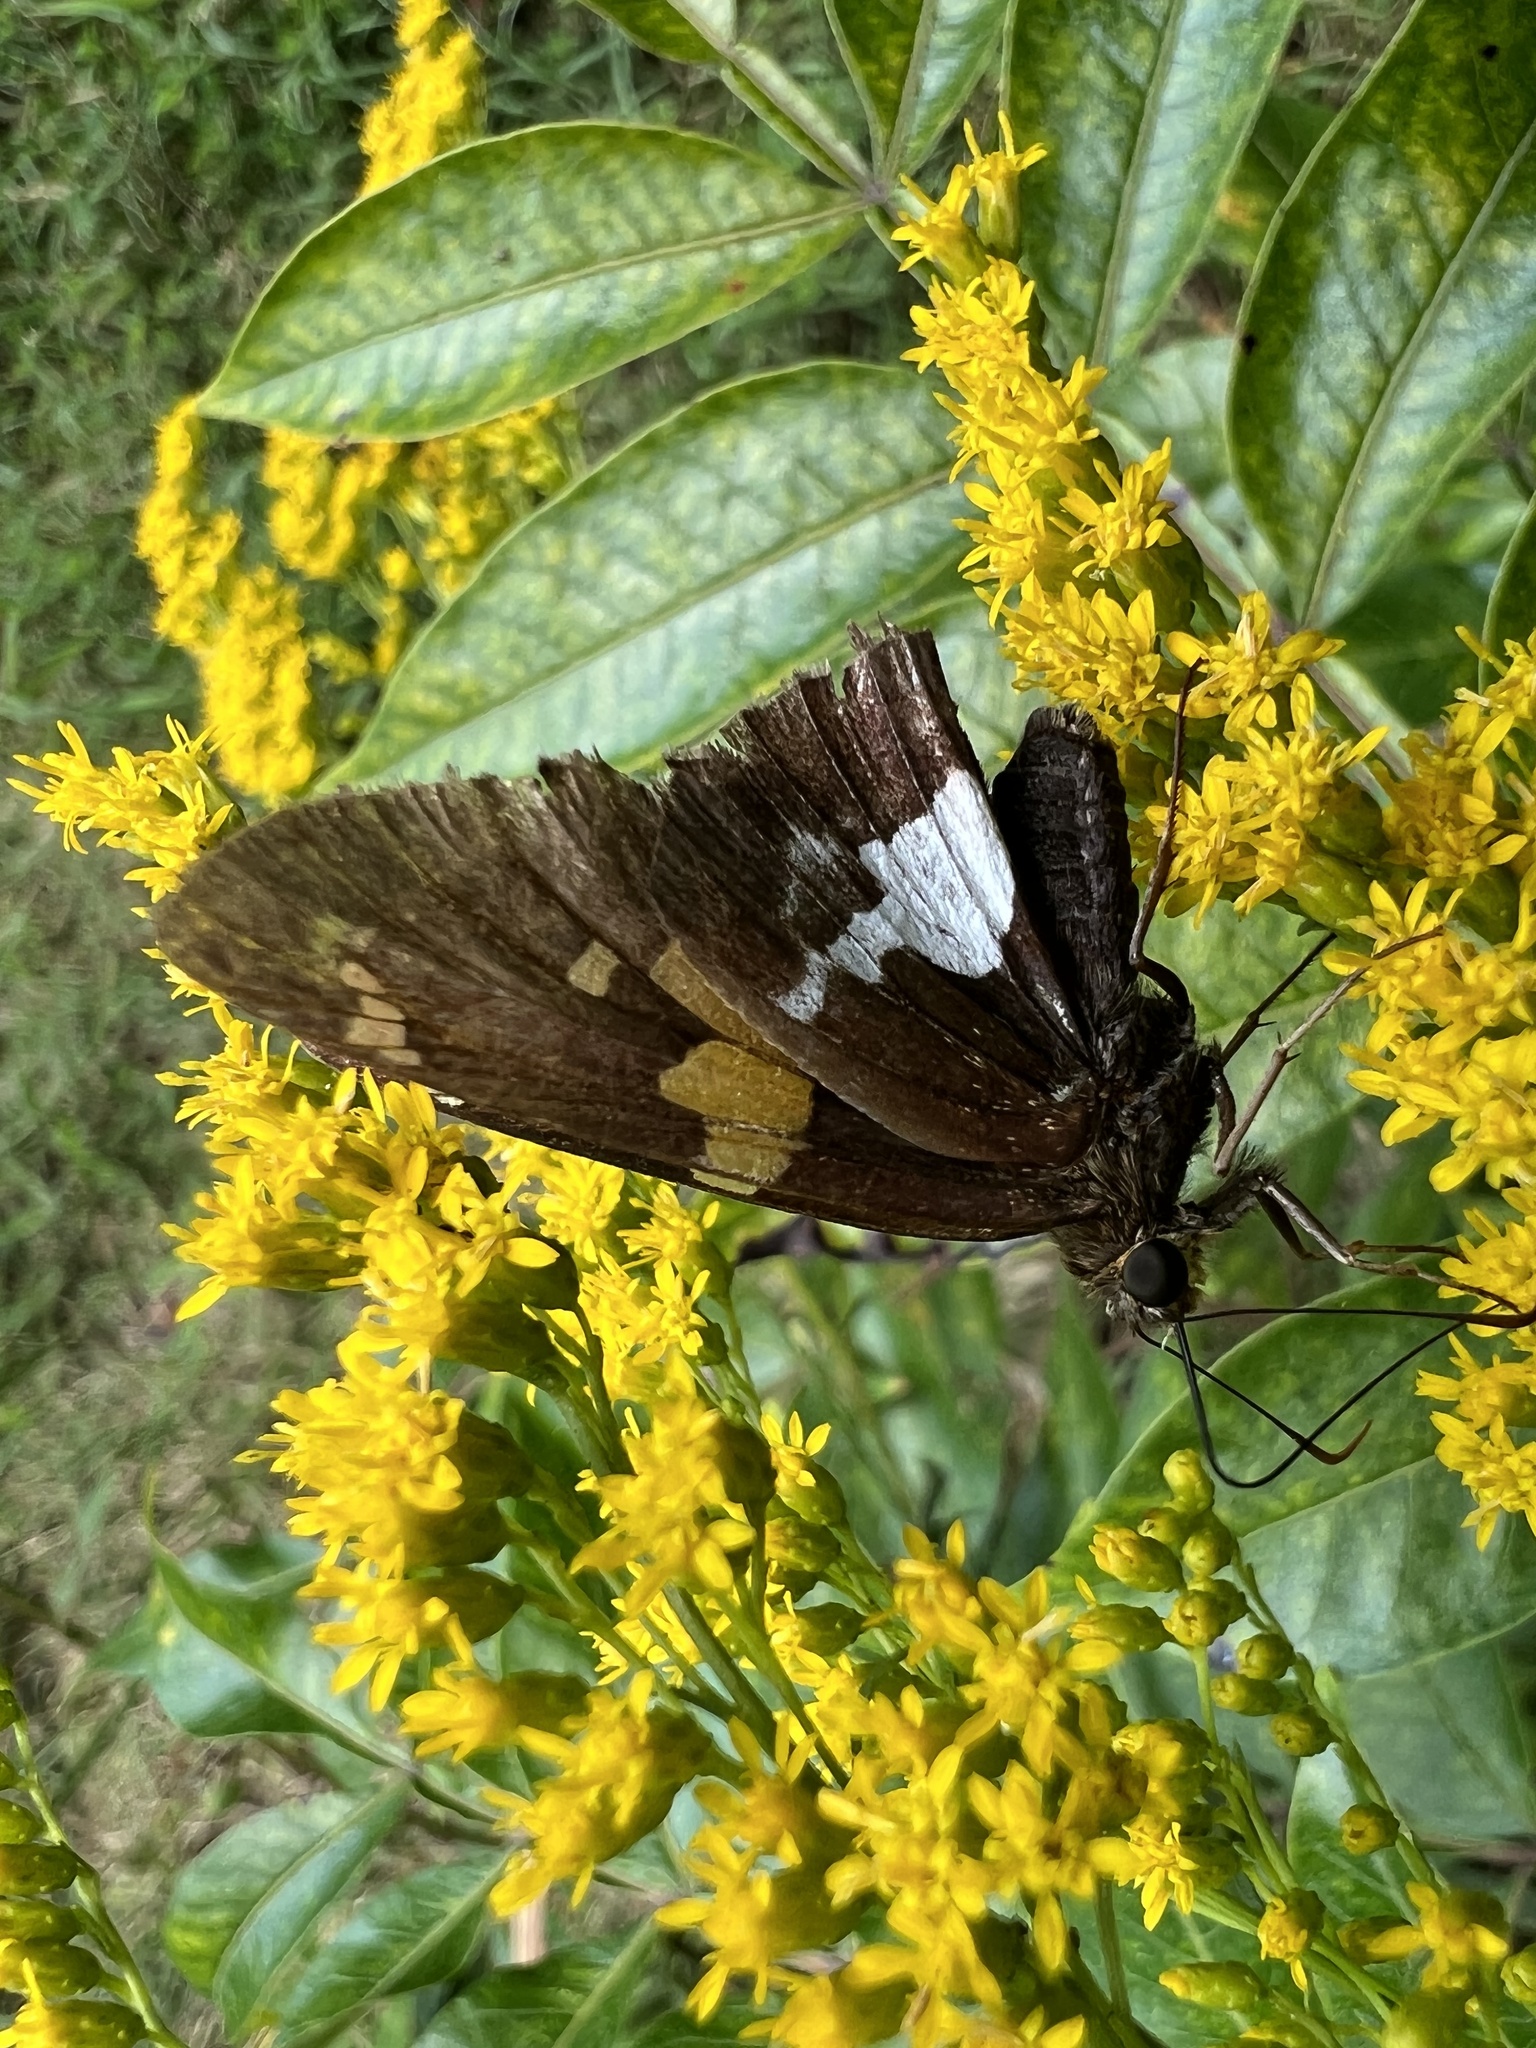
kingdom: Animalia
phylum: Arthropoda
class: Insecta
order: Lepidoptera
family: Hesperiidae
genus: Epargyreus
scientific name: Epargyreus clarus
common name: Silver-spotted skipper
